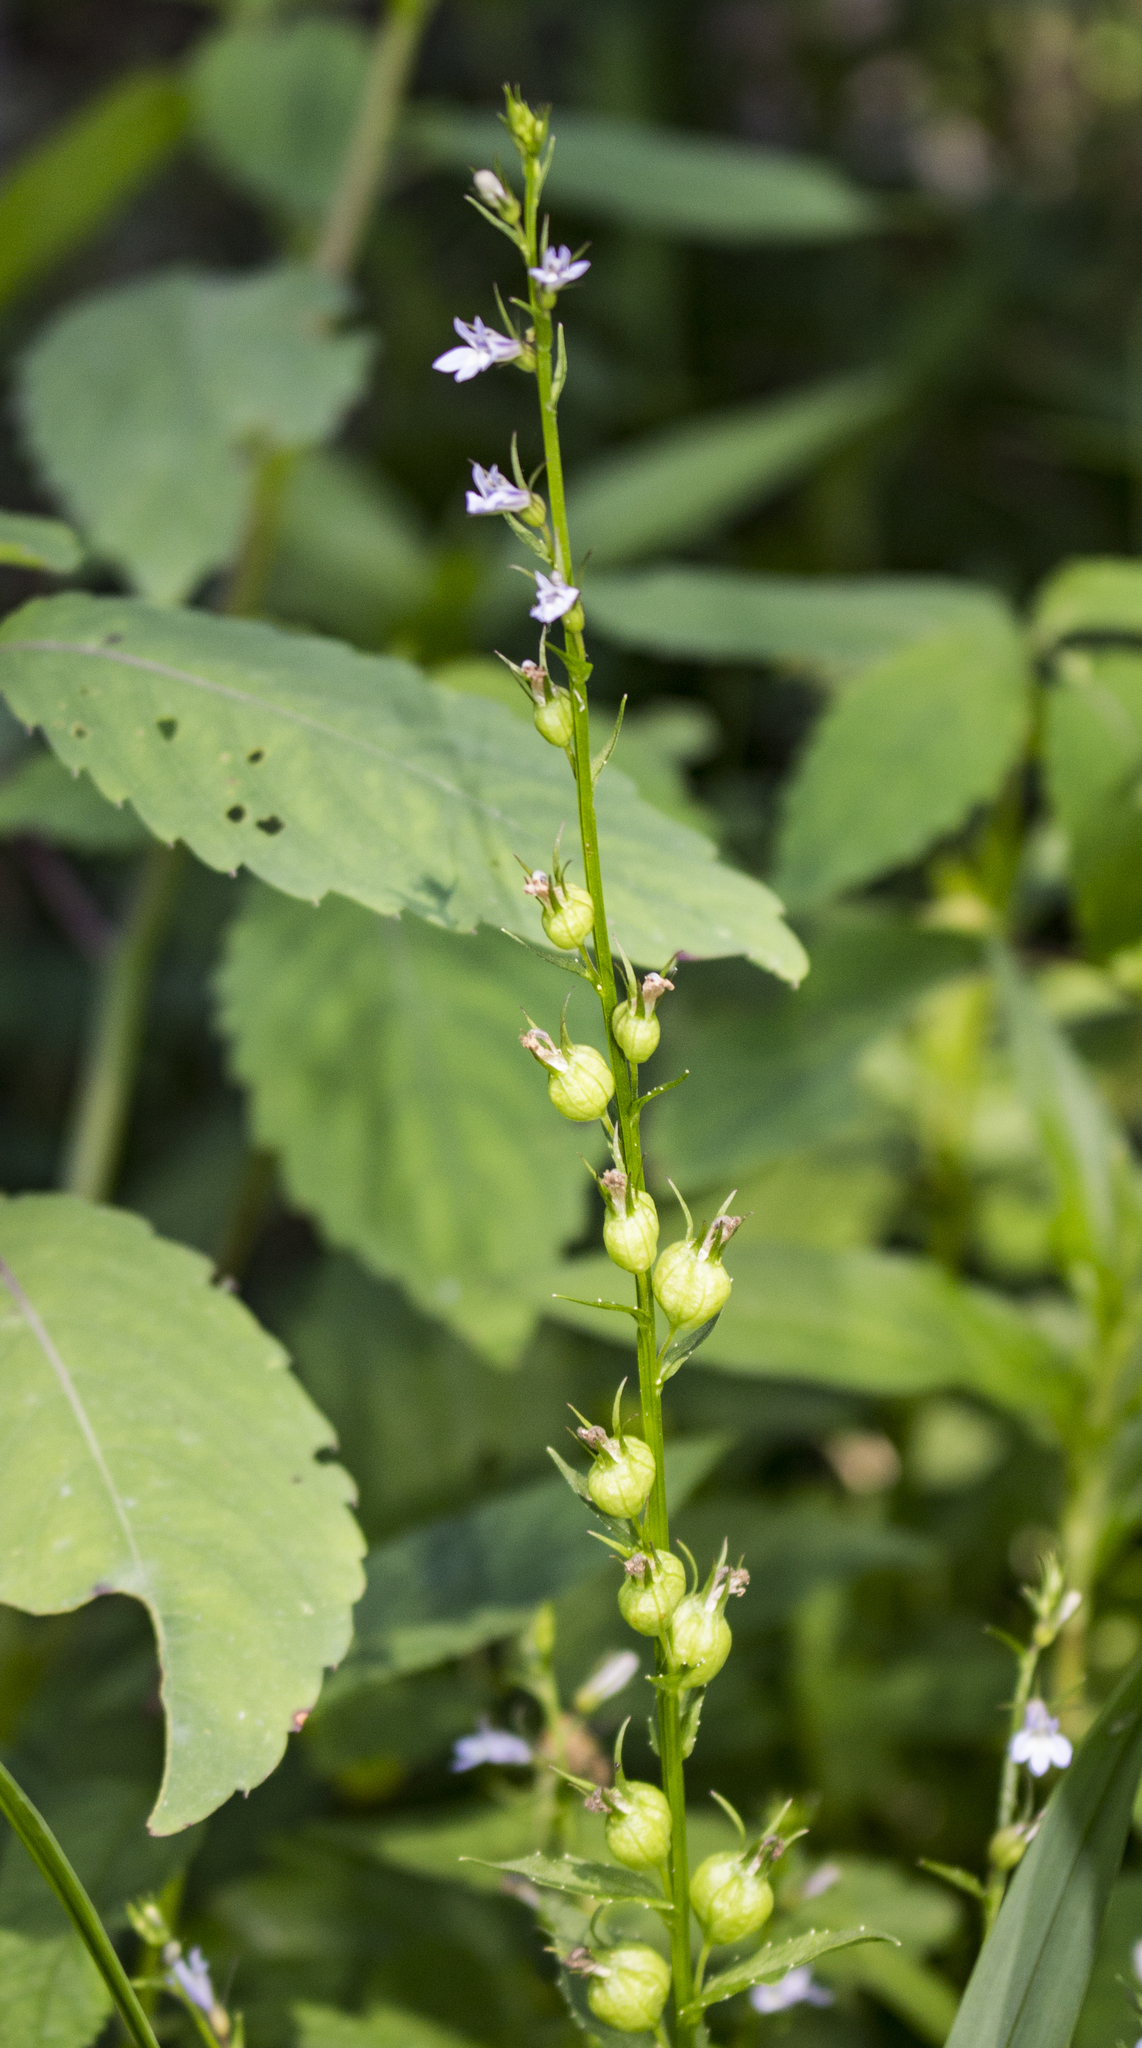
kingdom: Plantae
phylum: Tracheophyta
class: Magnoliopsida
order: Asterales
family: Campanulaceae
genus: Lobelia
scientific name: Lobelia inflata
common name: Indian tobacco
